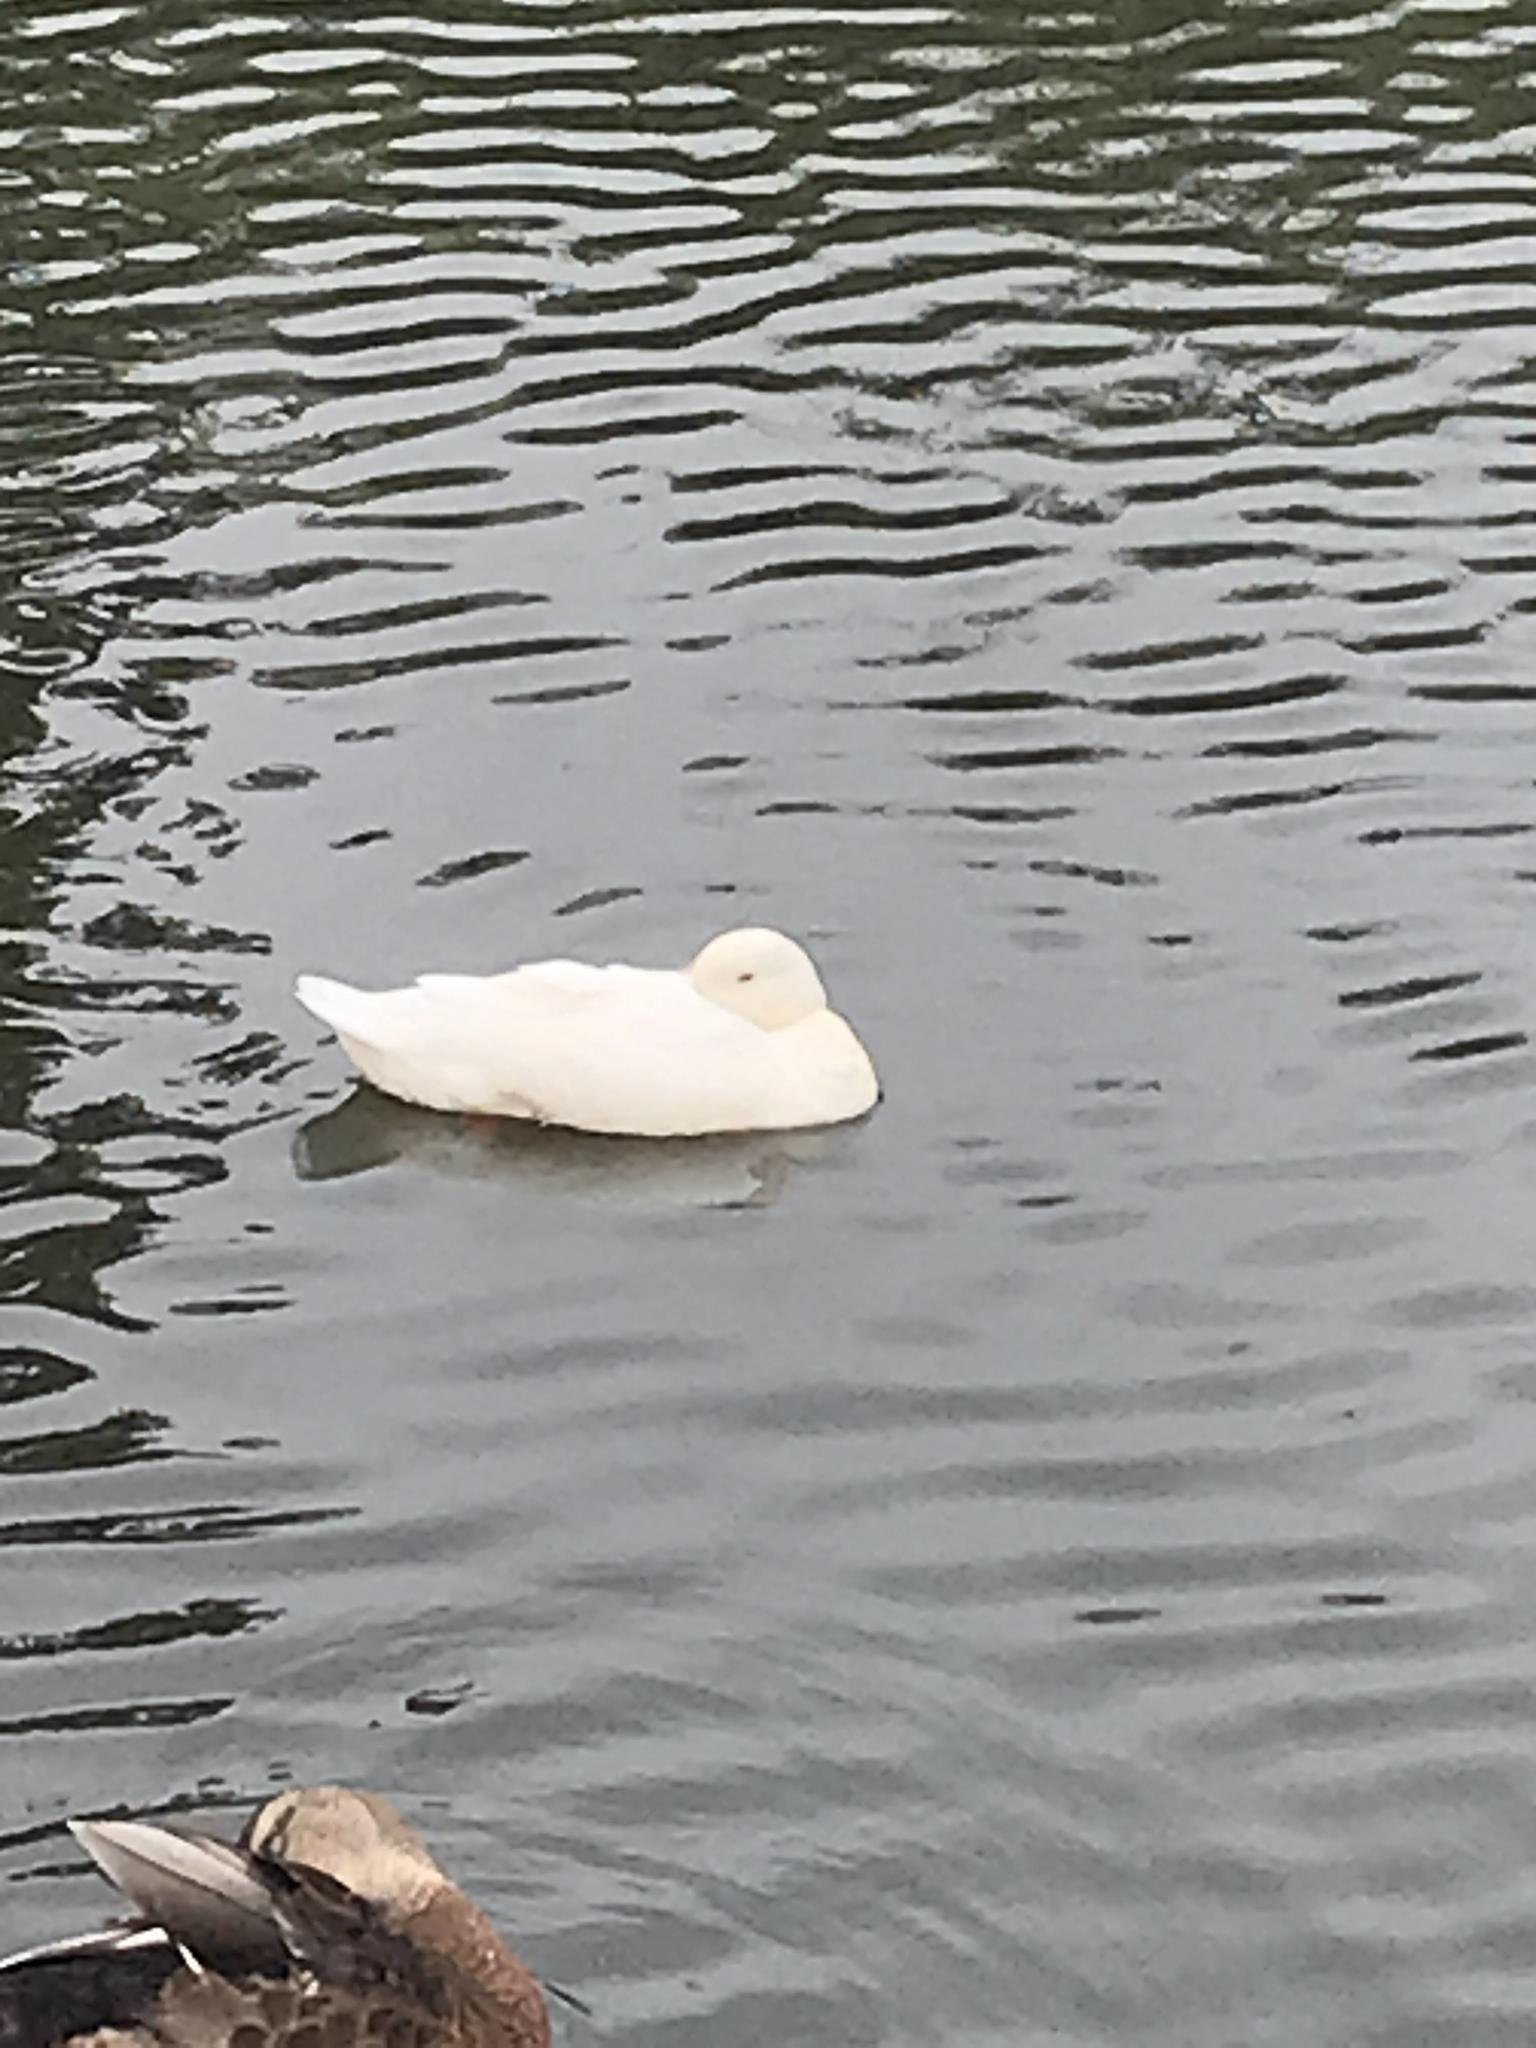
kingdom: Animalia
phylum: Chordata
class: Aves
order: Anseriformes
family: Anatidae
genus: Anas
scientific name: Anas platyrhynchos
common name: Mallard
